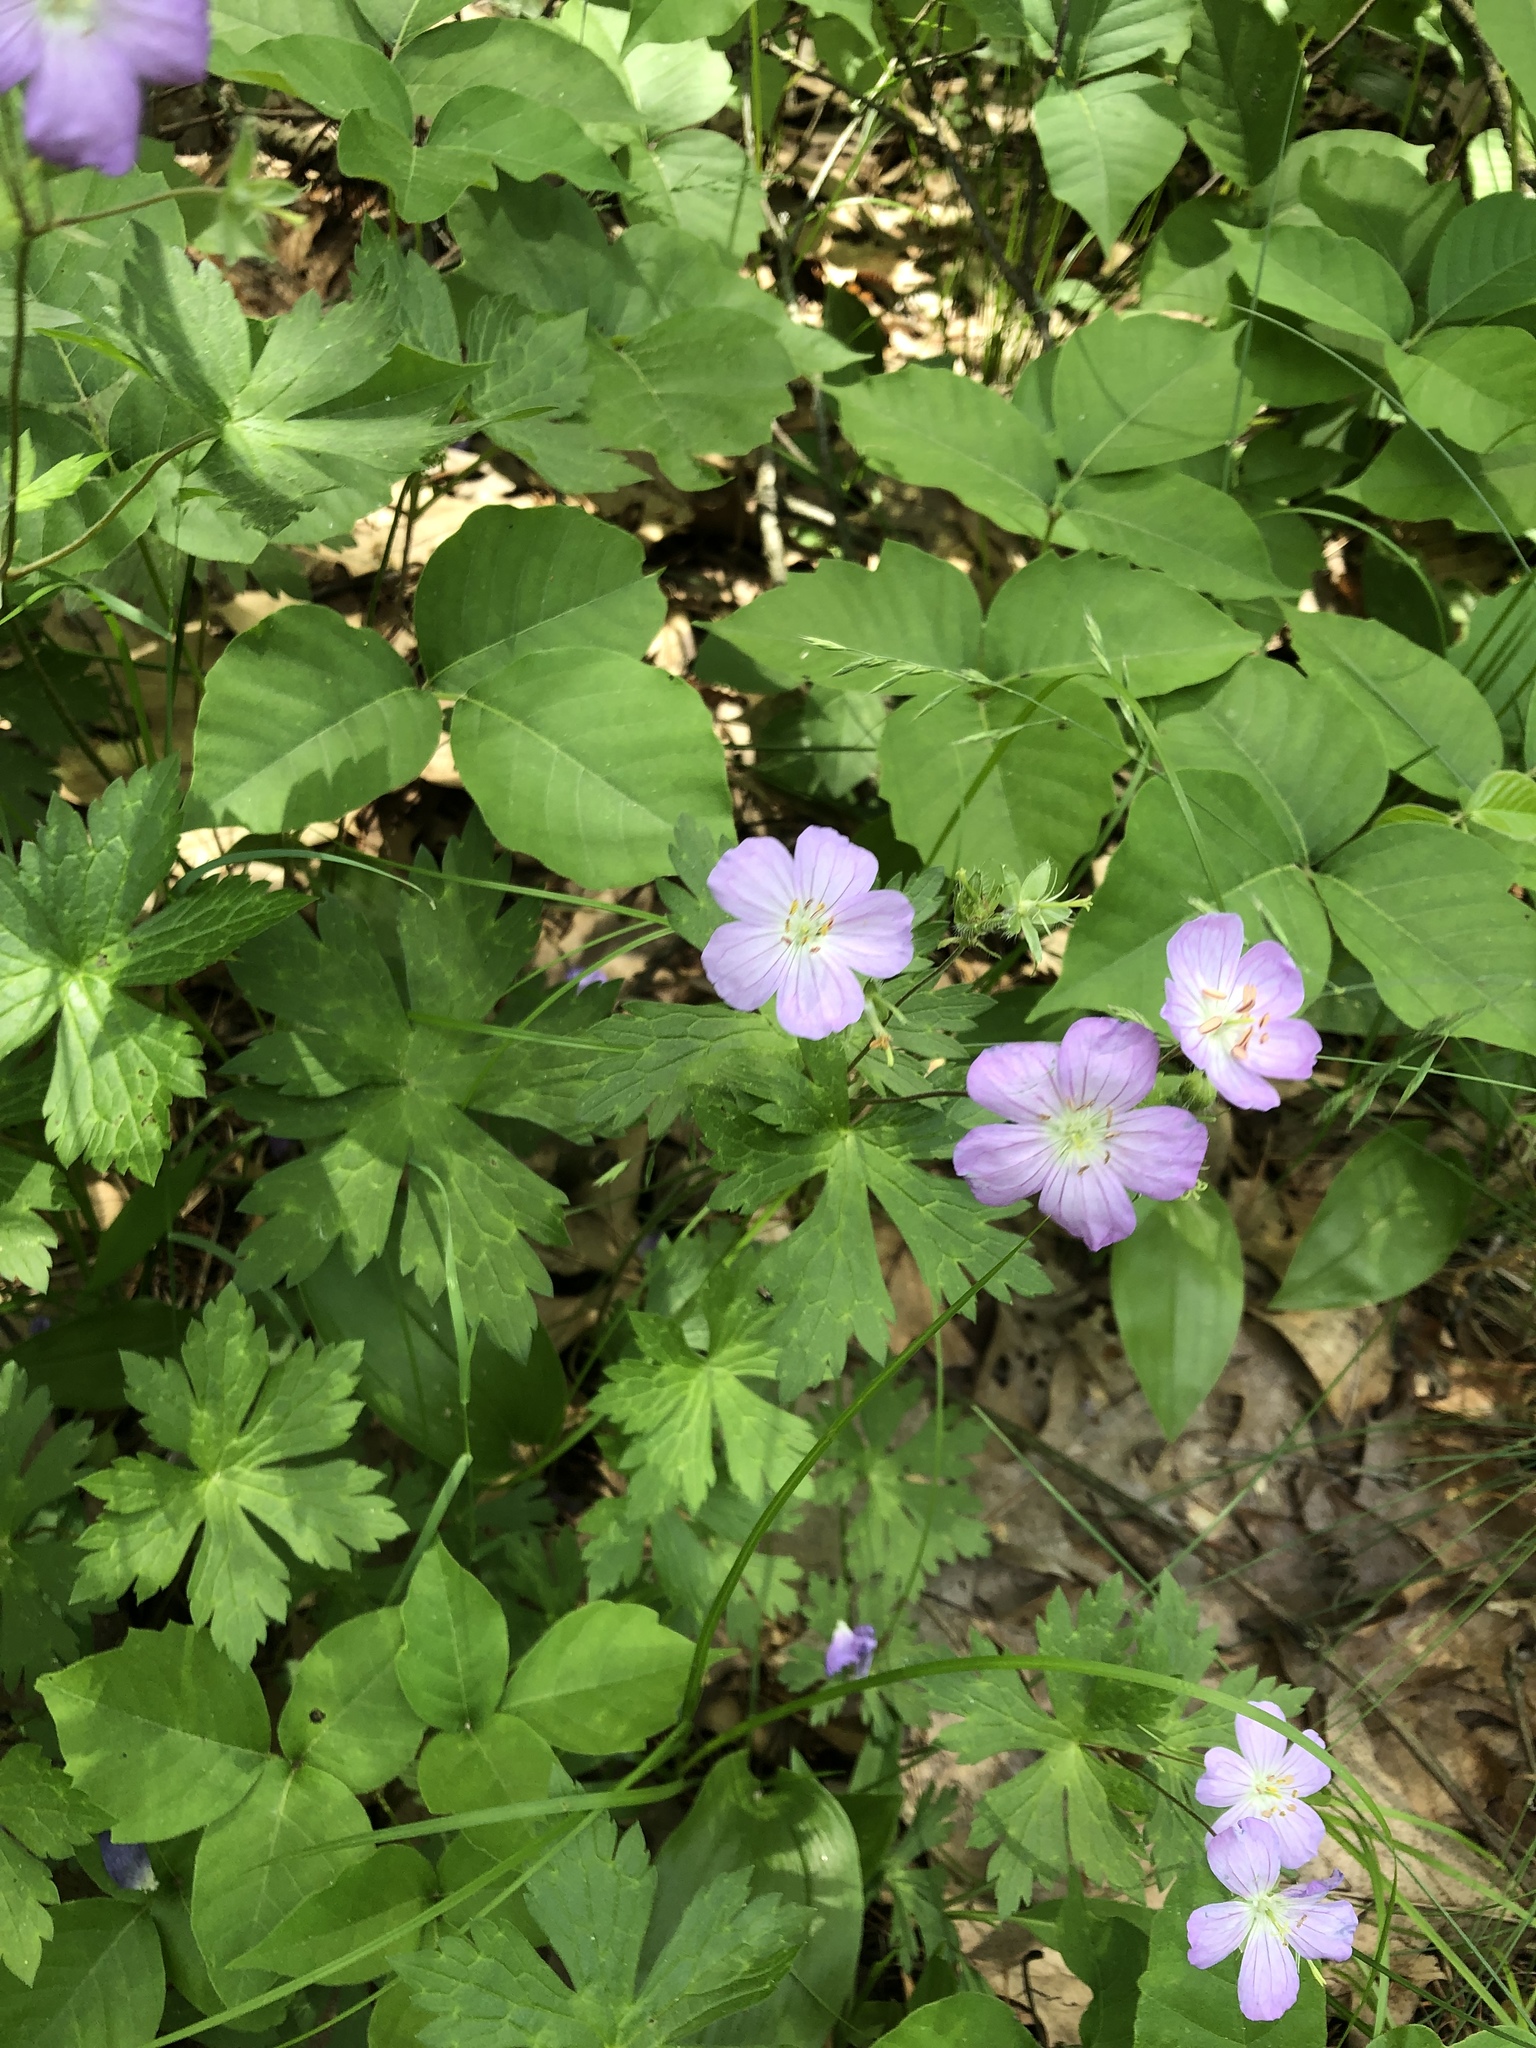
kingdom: Plantae
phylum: Tracheophyta
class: Magnoliopsida
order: Geraniales
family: Geraniaceae
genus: Geranium
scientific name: Geranium maculatum
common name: Spotted geranium
